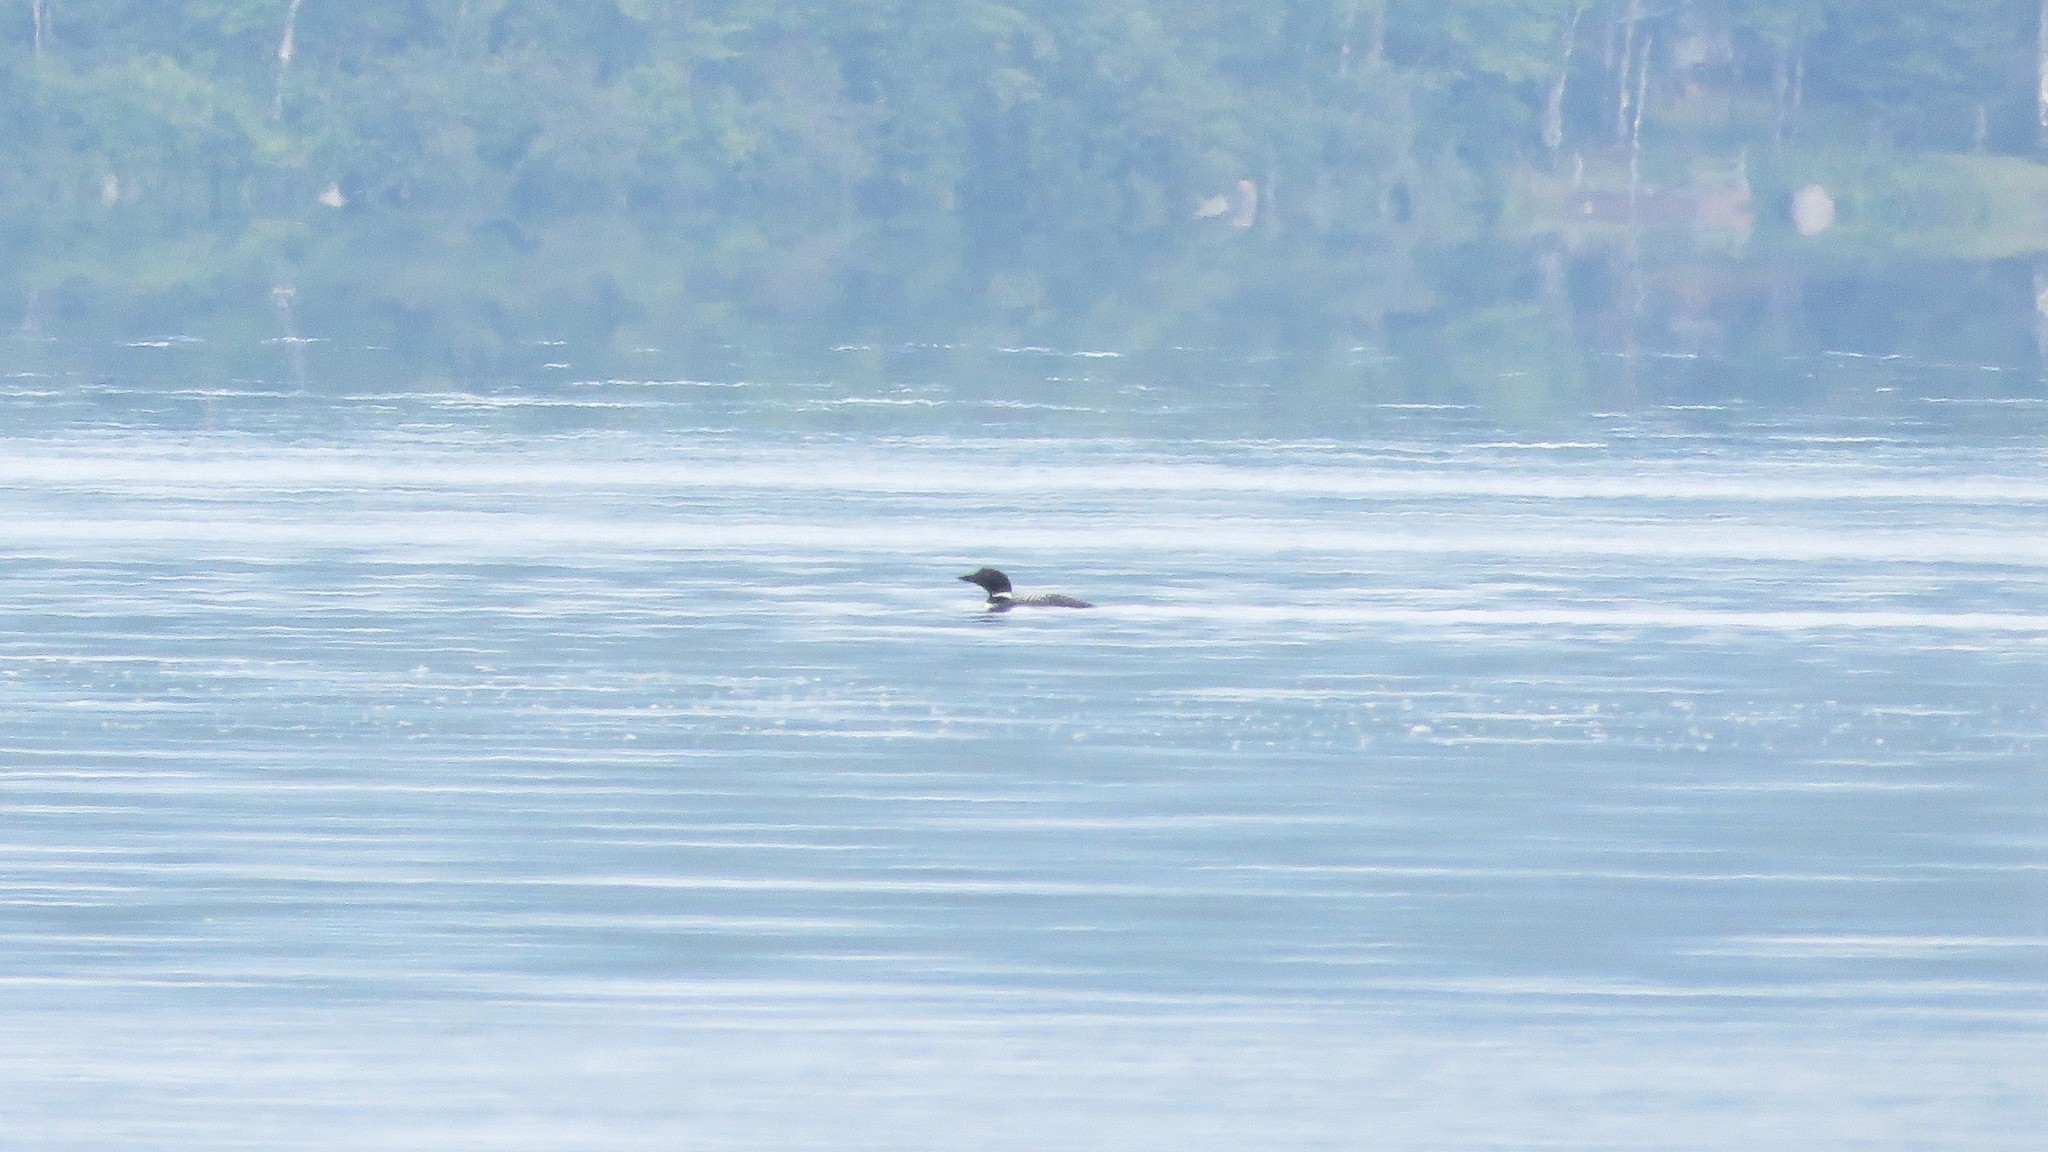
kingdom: Animalia
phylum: Chordata
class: Aves
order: Gaviiformes
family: Gaviidae
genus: Gavia
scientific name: Gavia immer
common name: Common loon
